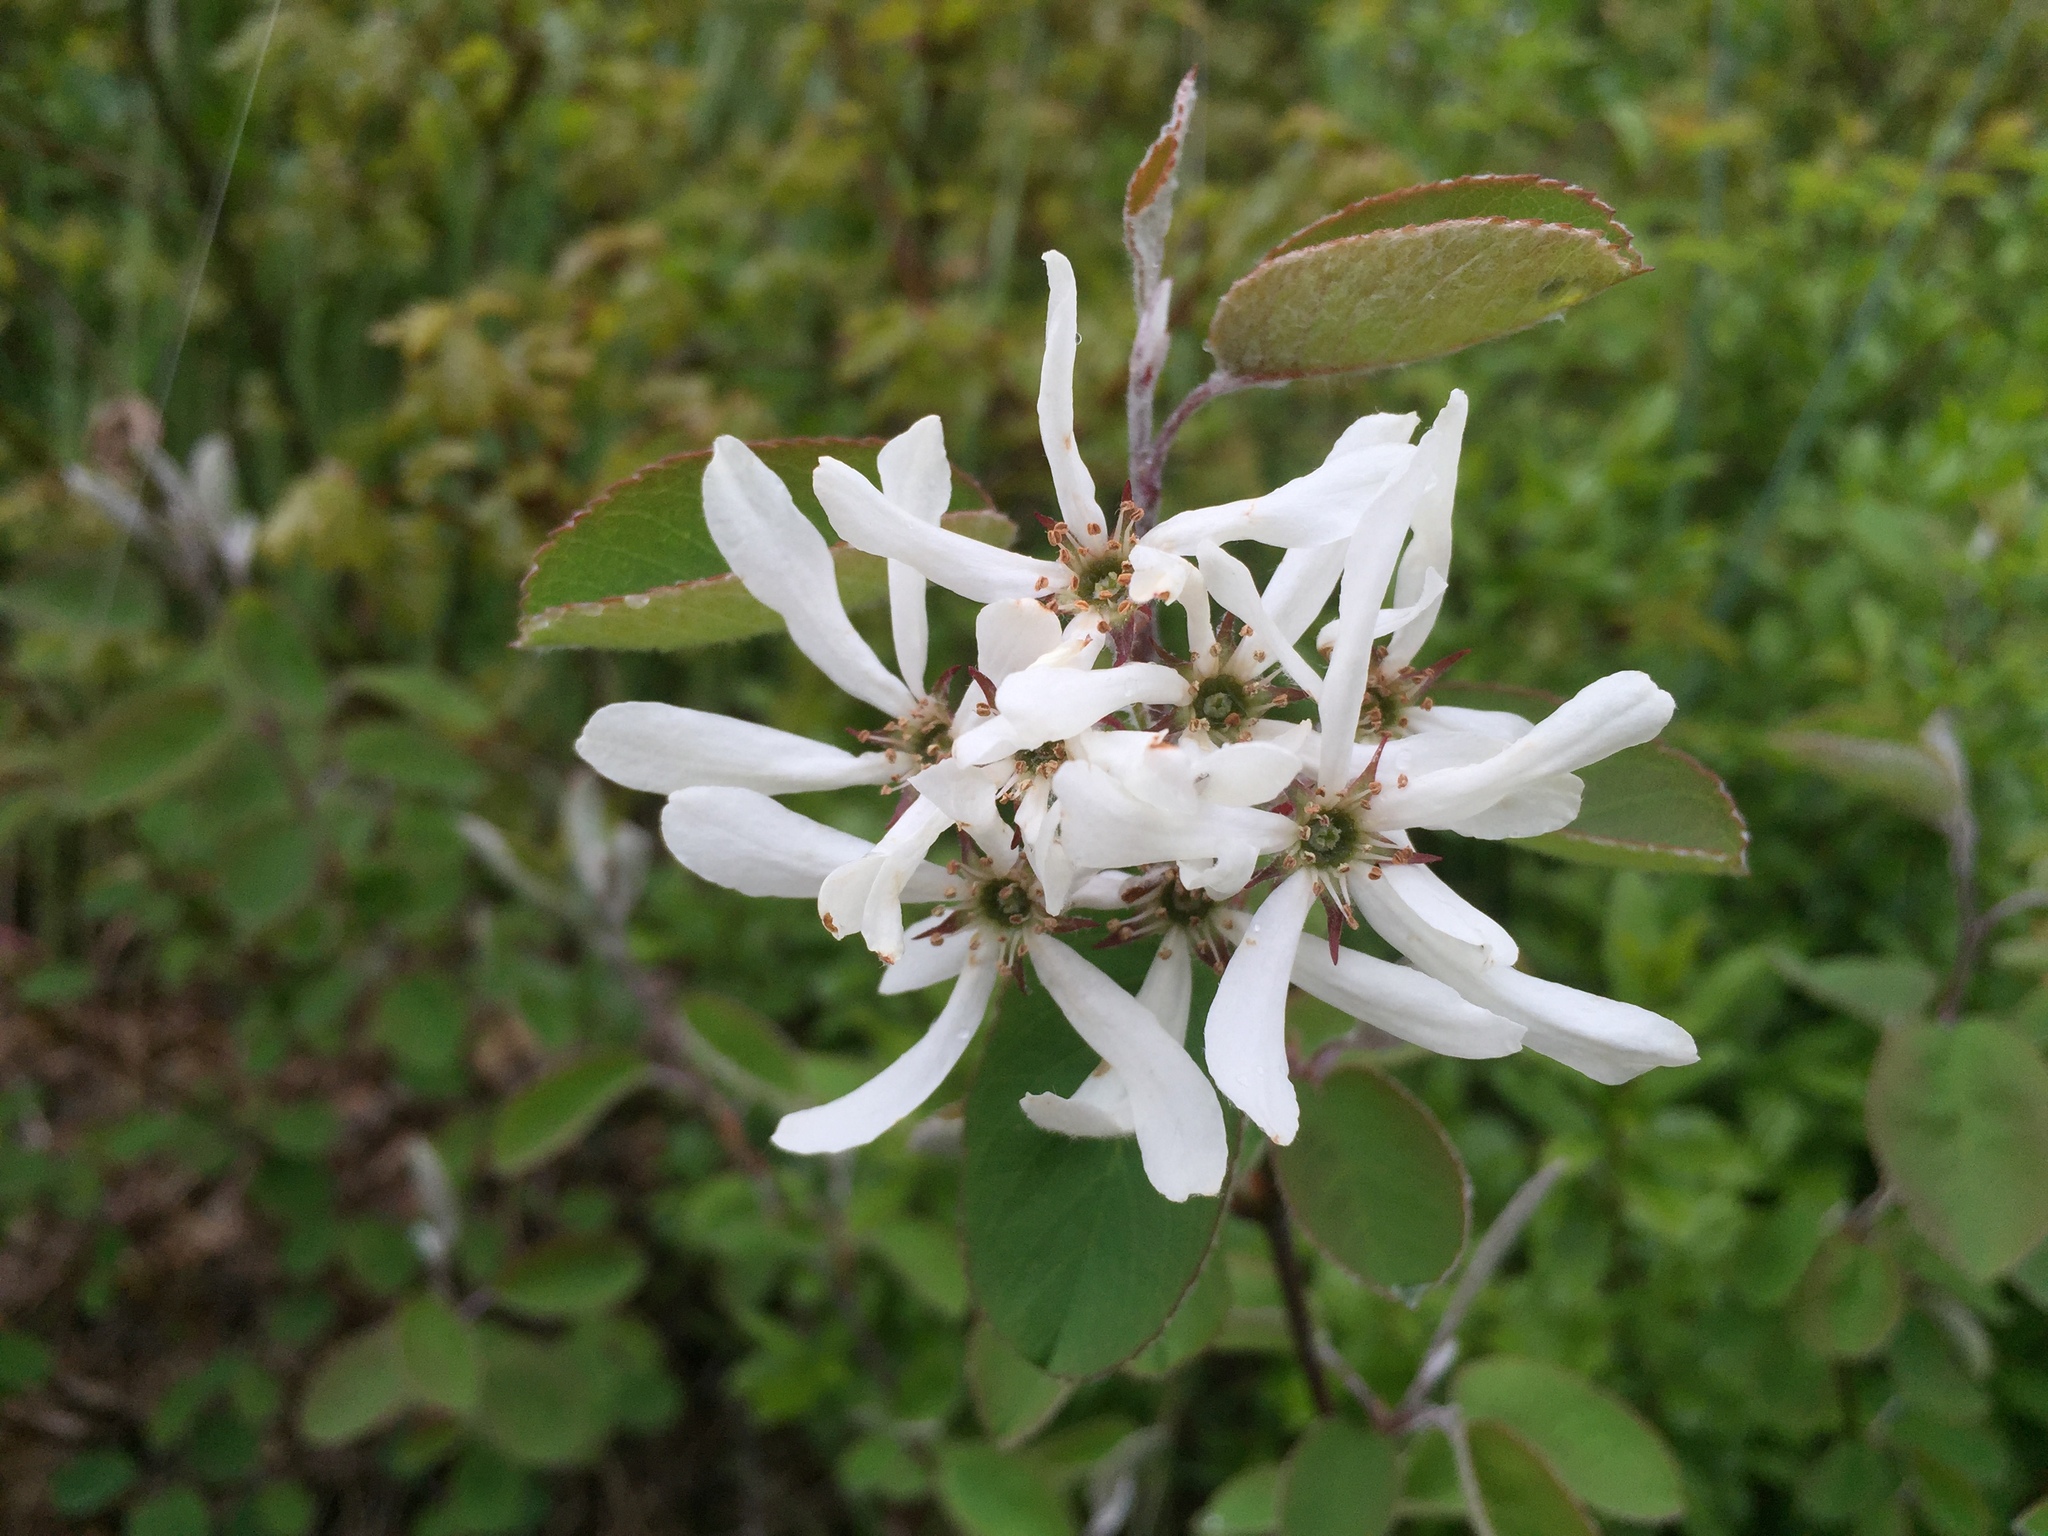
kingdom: Plantae
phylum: Tracheophyta
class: Magnoliopsida
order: Rosales
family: Rosaceae
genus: Amelanchier
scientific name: Amelanchier ovalis
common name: Serviceberry
